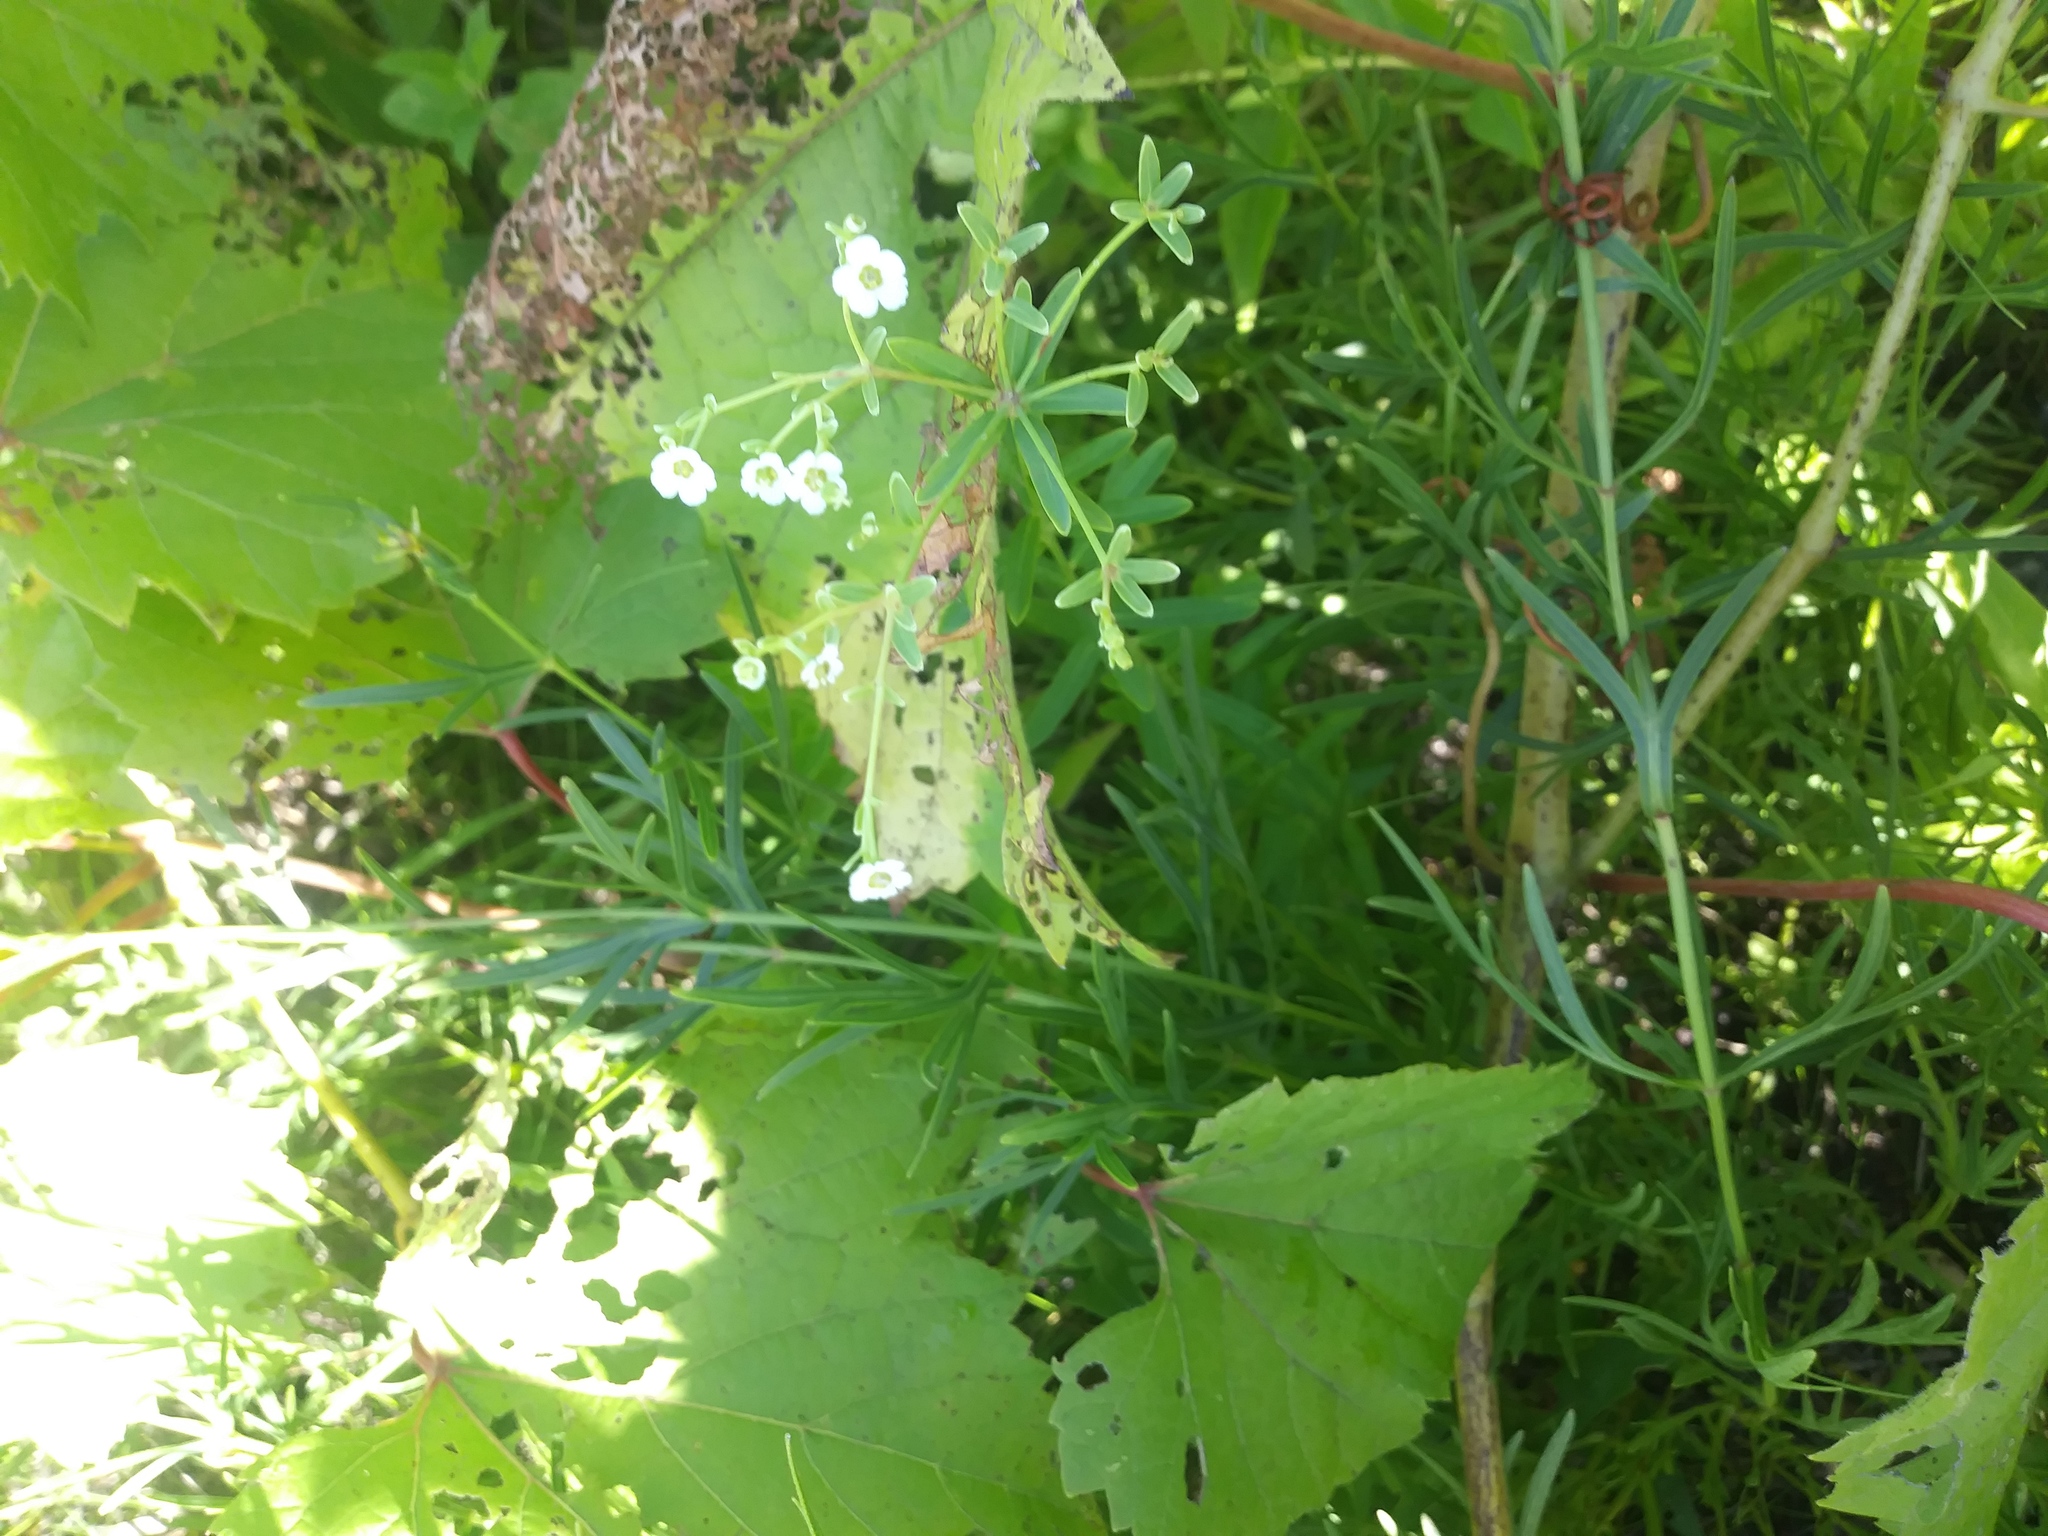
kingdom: Plantae
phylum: Tracheophyta
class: Magnoliopsida
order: Malpighiales
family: Euphorbiaceae
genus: Euphorbia
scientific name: Euphorbia corollata
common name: Flowering spurge
